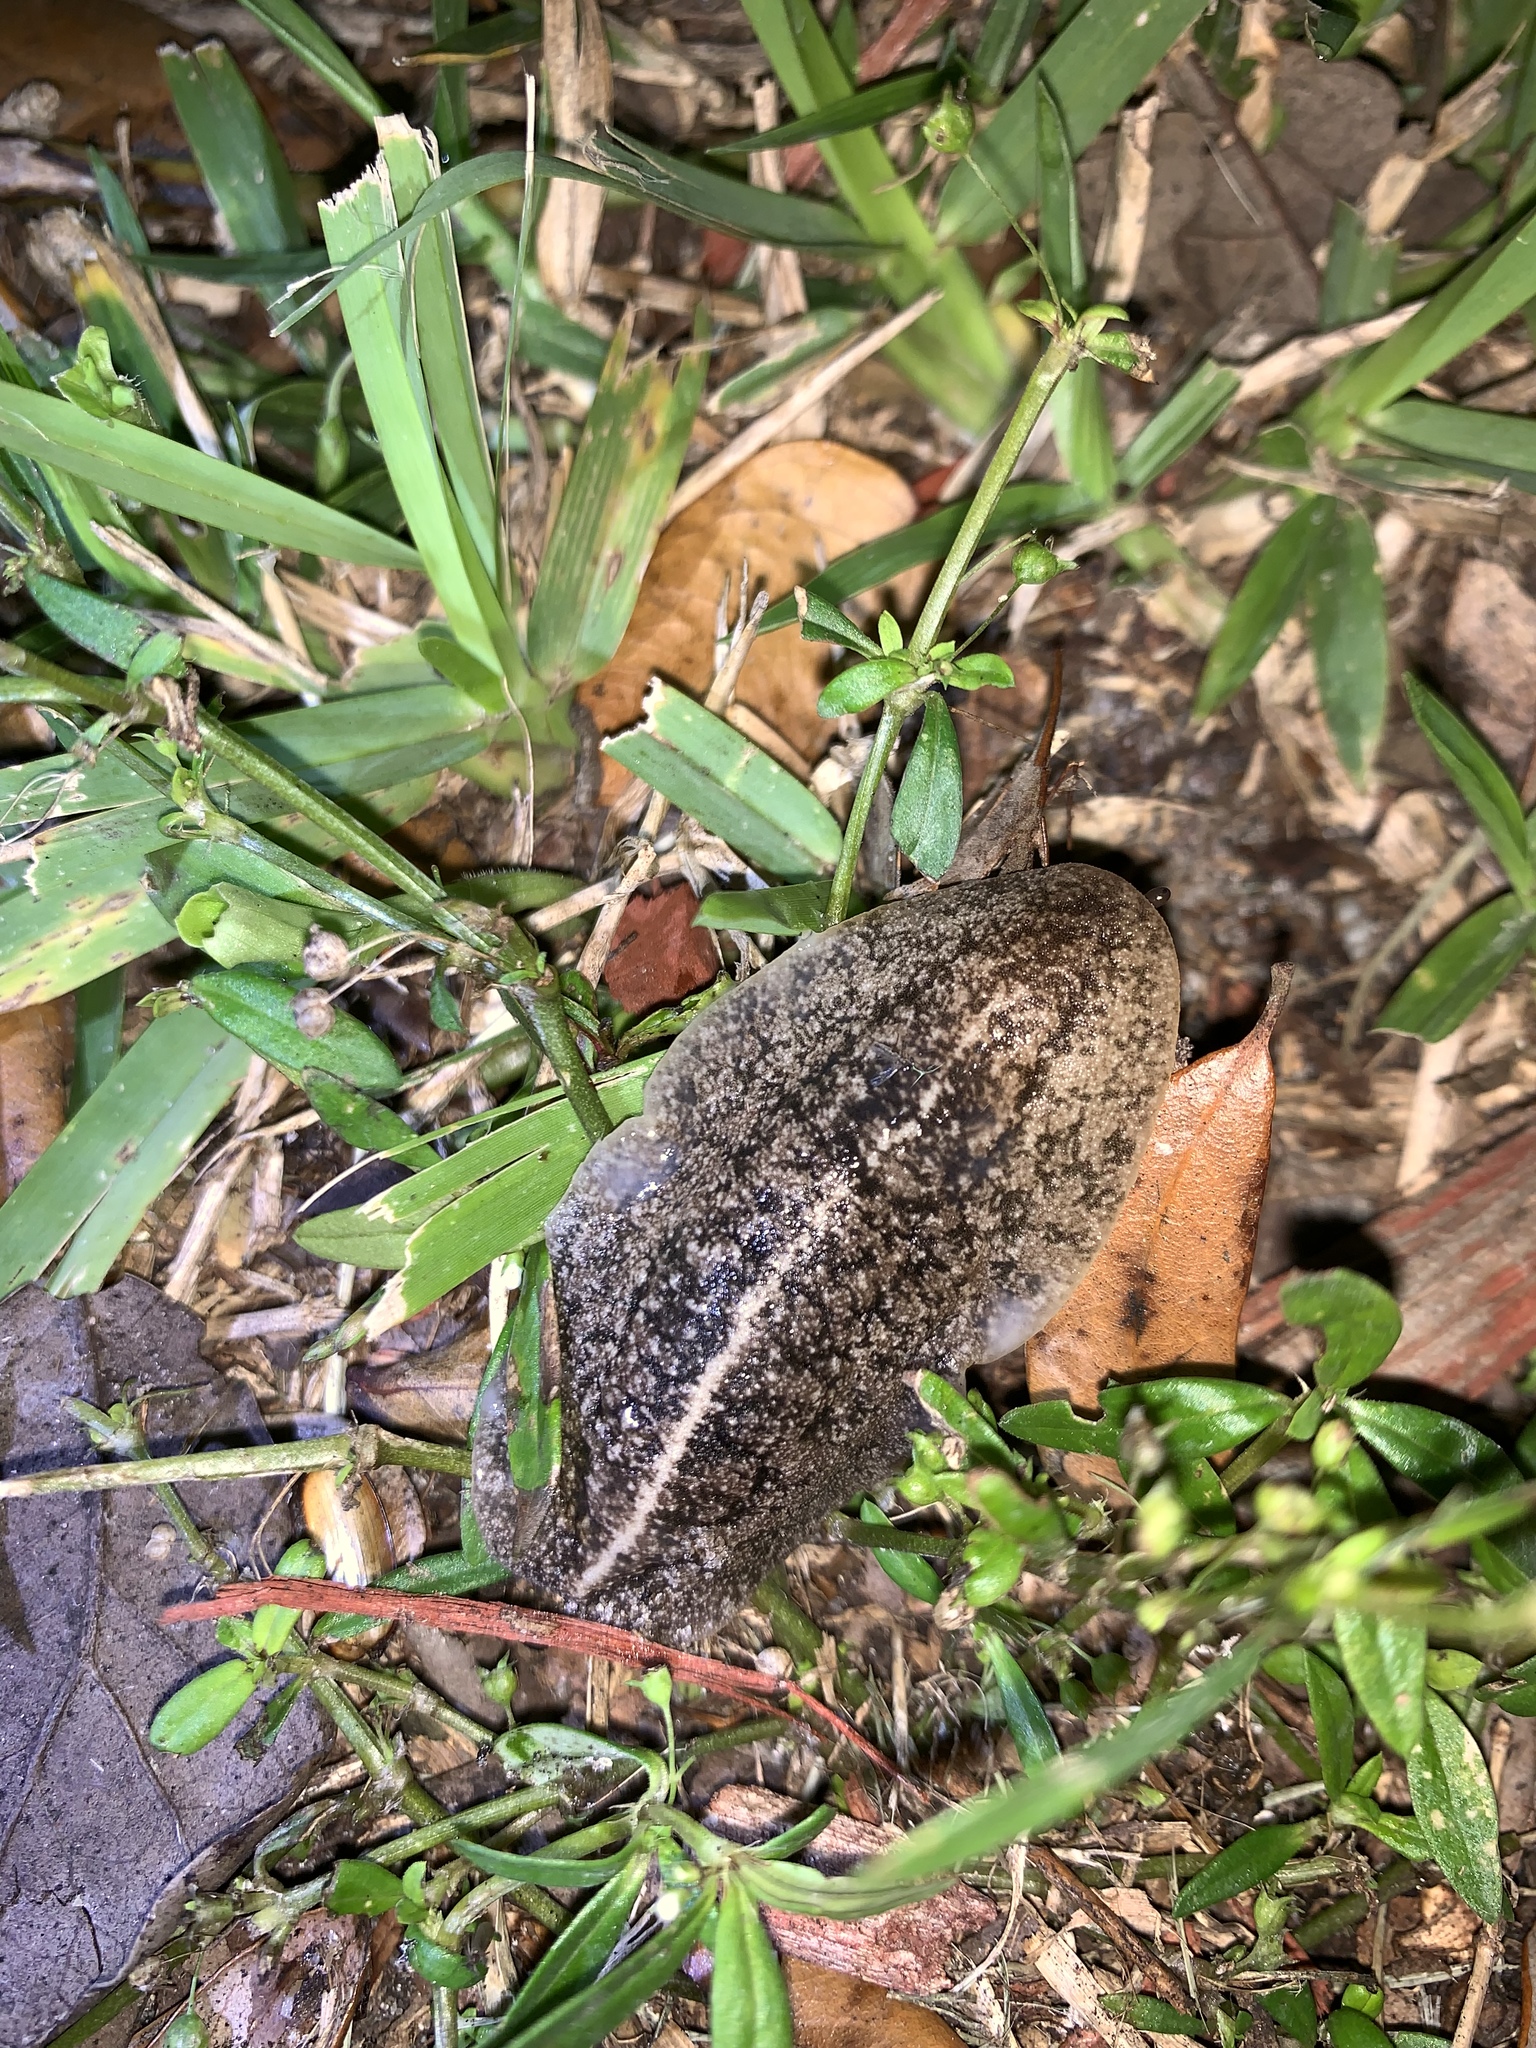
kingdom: Animalia
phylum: Mollusca
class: Gastropoda
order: Systellommatophora
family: Veronicellidae
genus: Leidyula
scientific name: Leidyula floridana
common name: Florida leatherleaf
